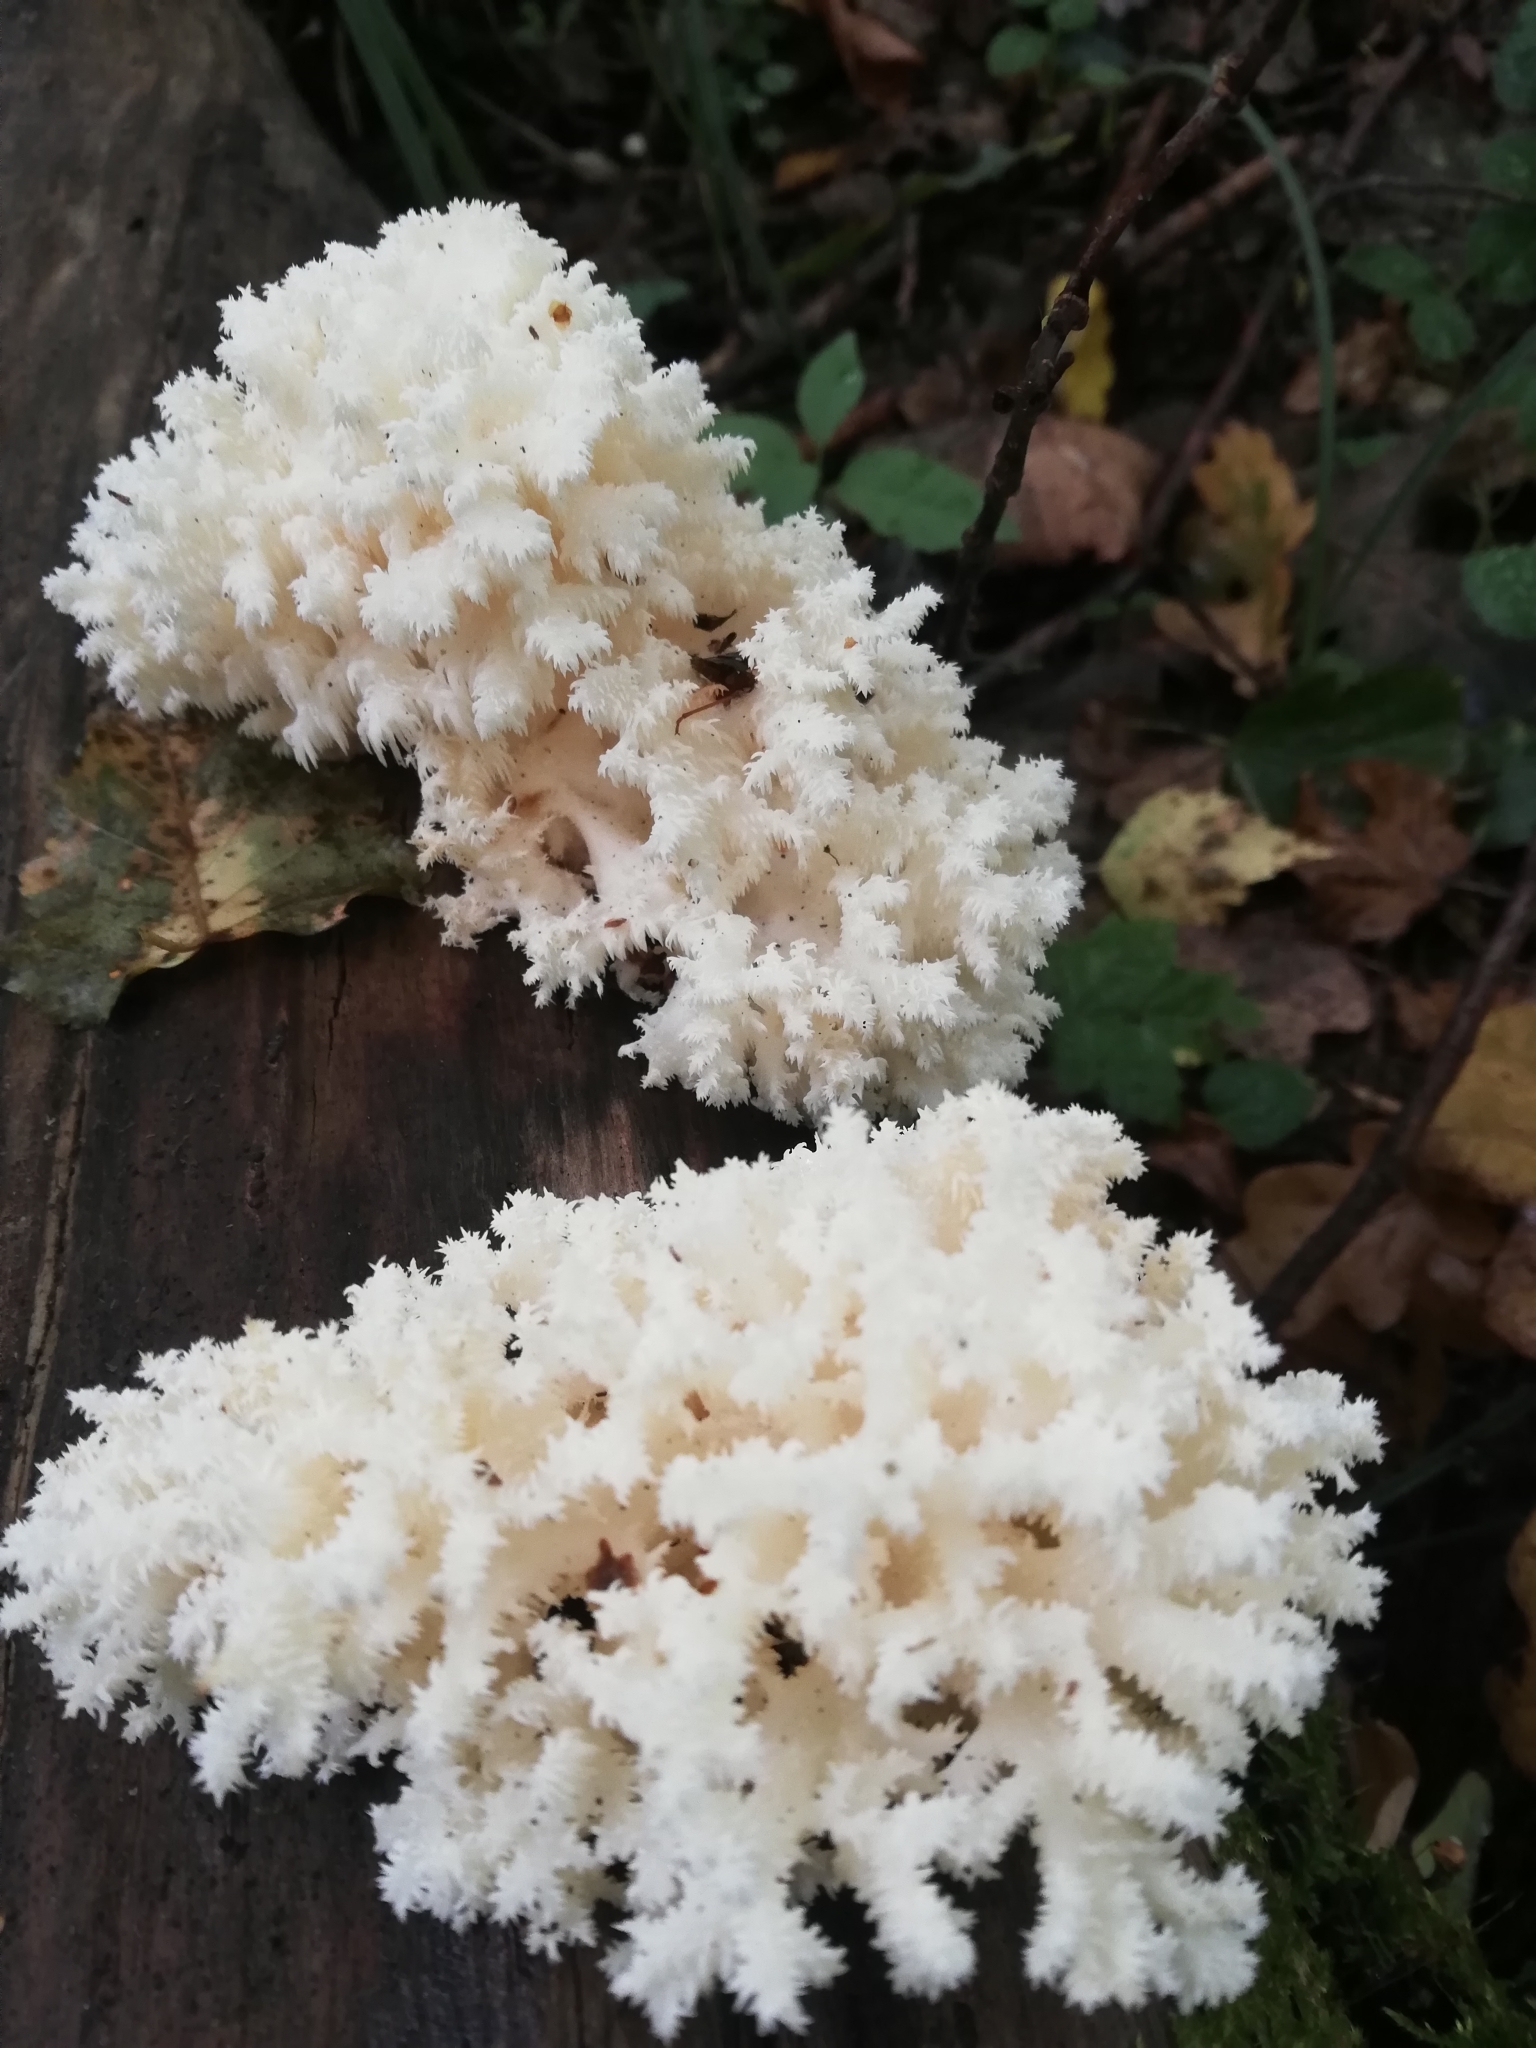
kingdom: Fungi
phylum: Basidiomycota
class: Agaricomycetes
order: Russulales
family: Hericiaceae
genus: Hericium
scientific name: Hericium coralloides
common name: Coral tooth
